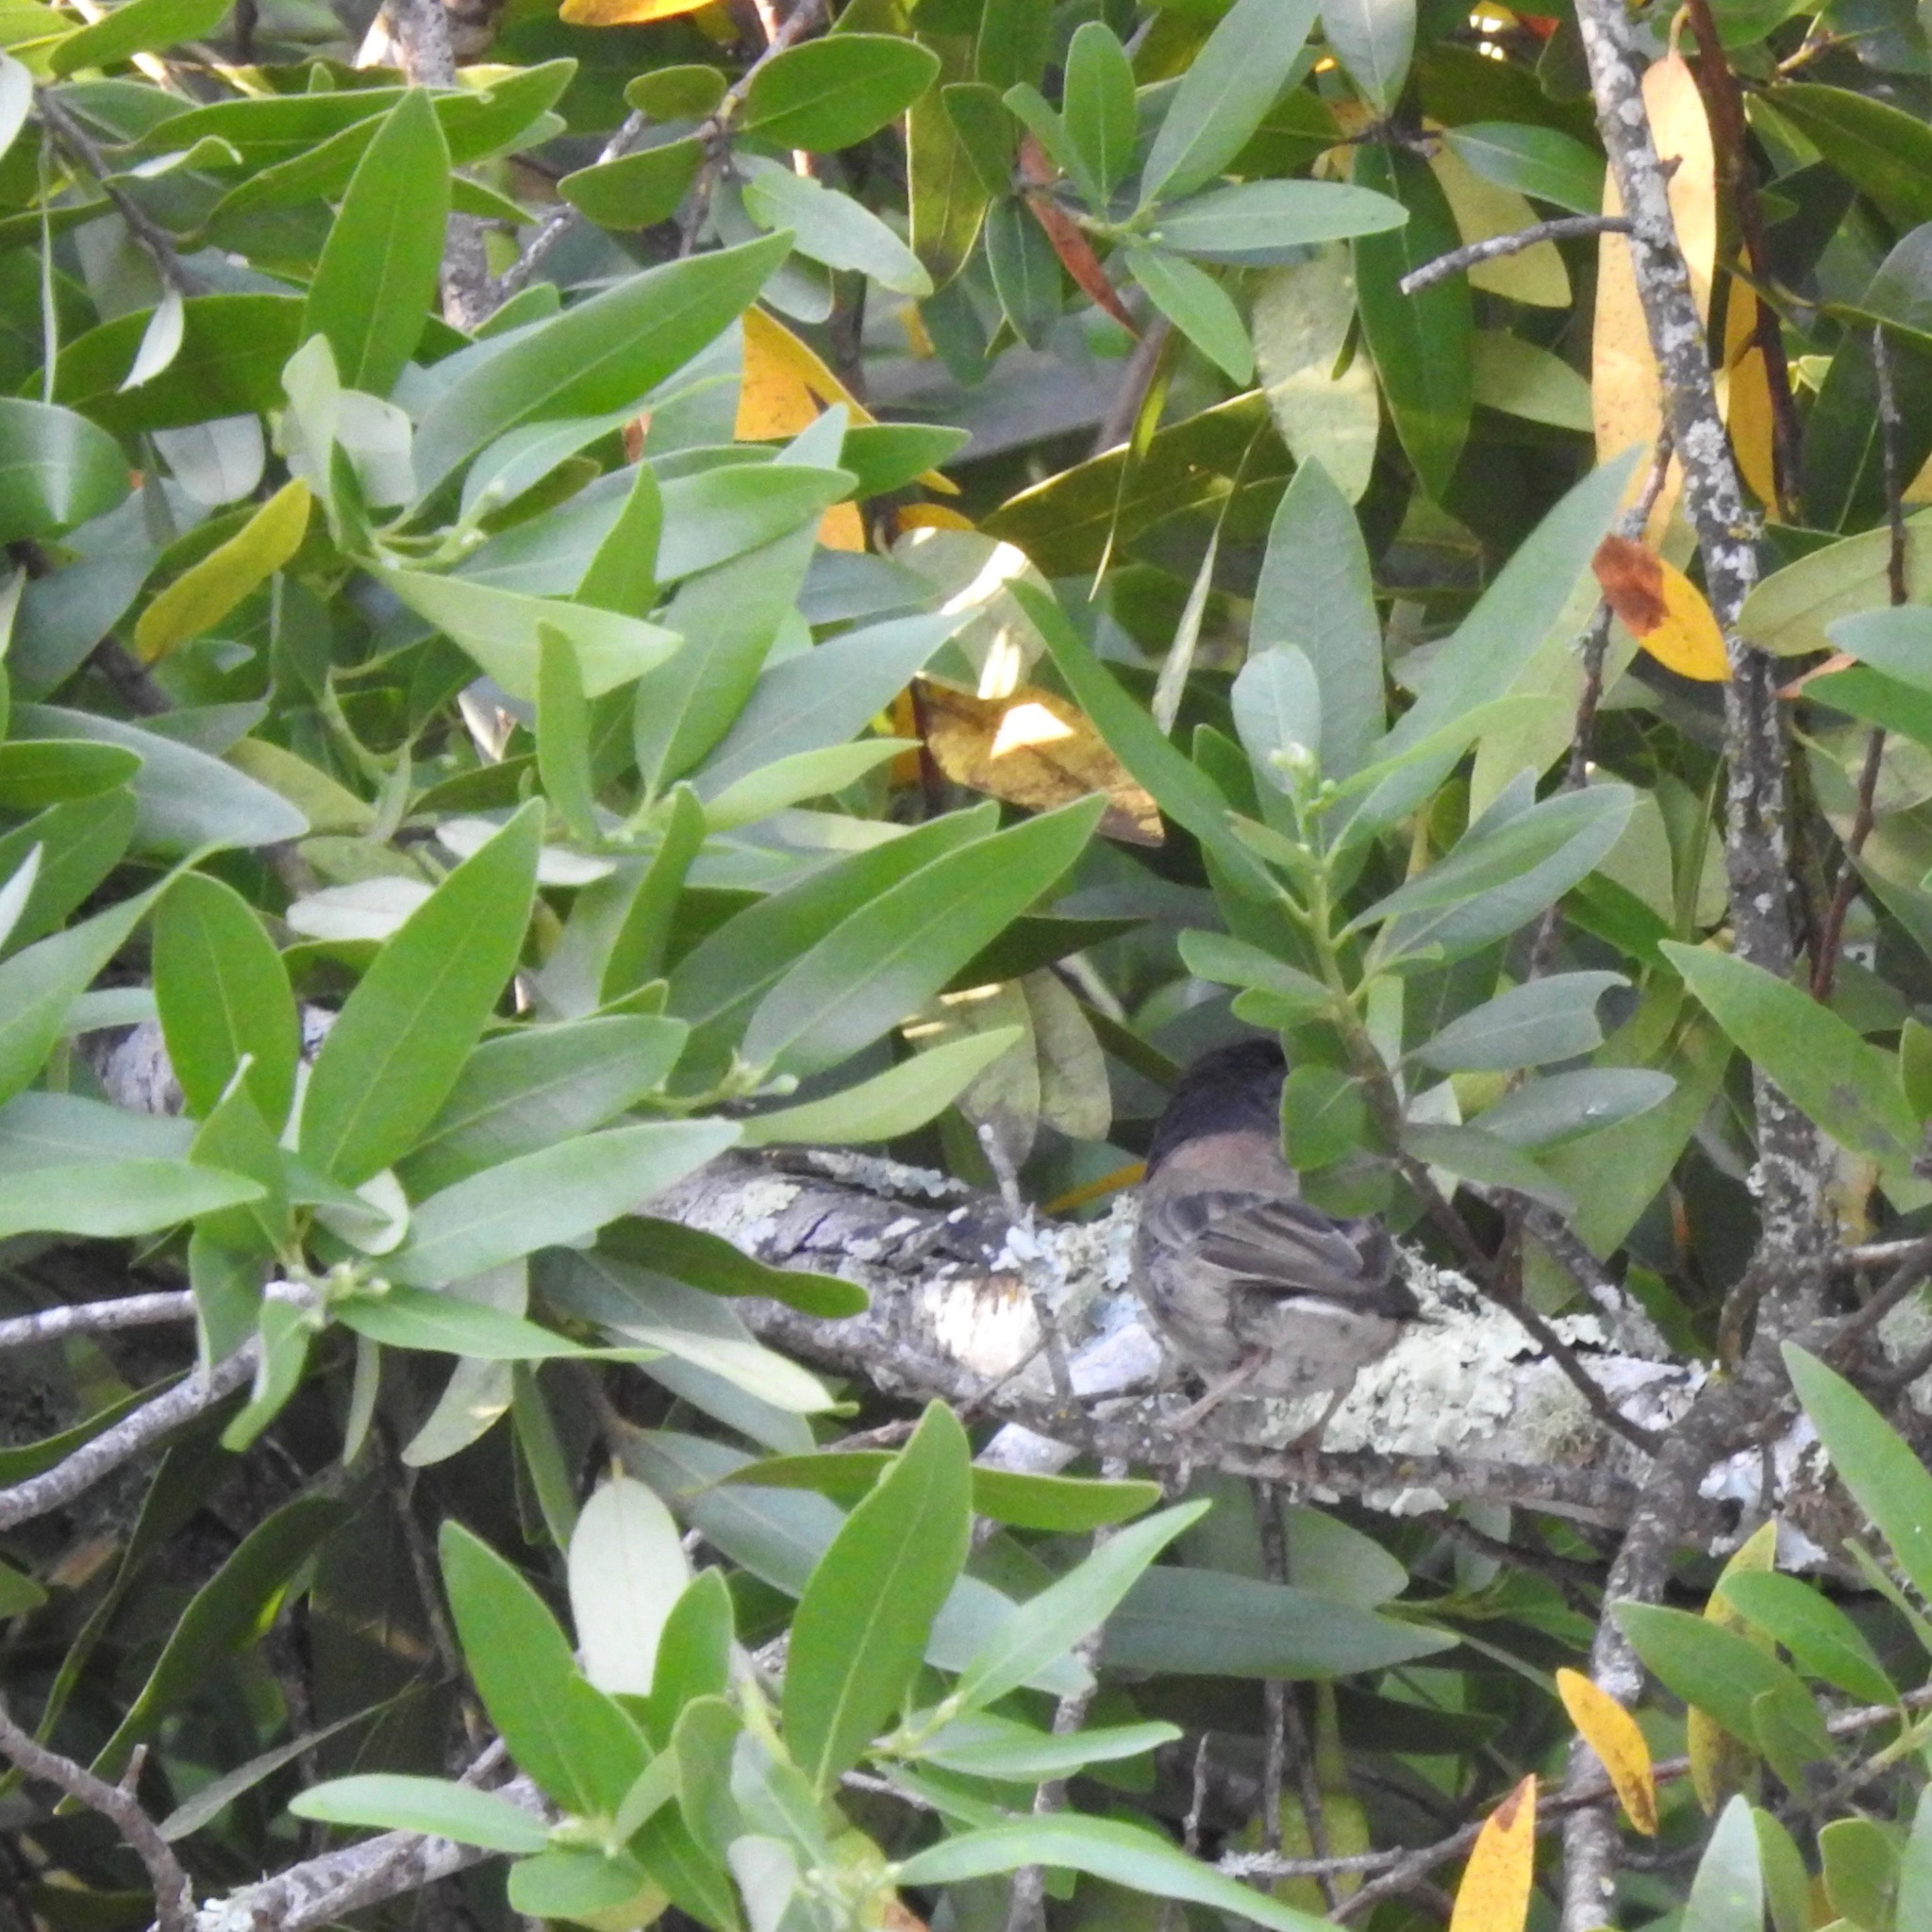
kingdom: Animalia
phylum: Chordata
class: Aves
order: Passeriformes
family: Passerellidae
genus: Junco
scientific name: Junco hyemalis
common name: Dark-eyed junco
